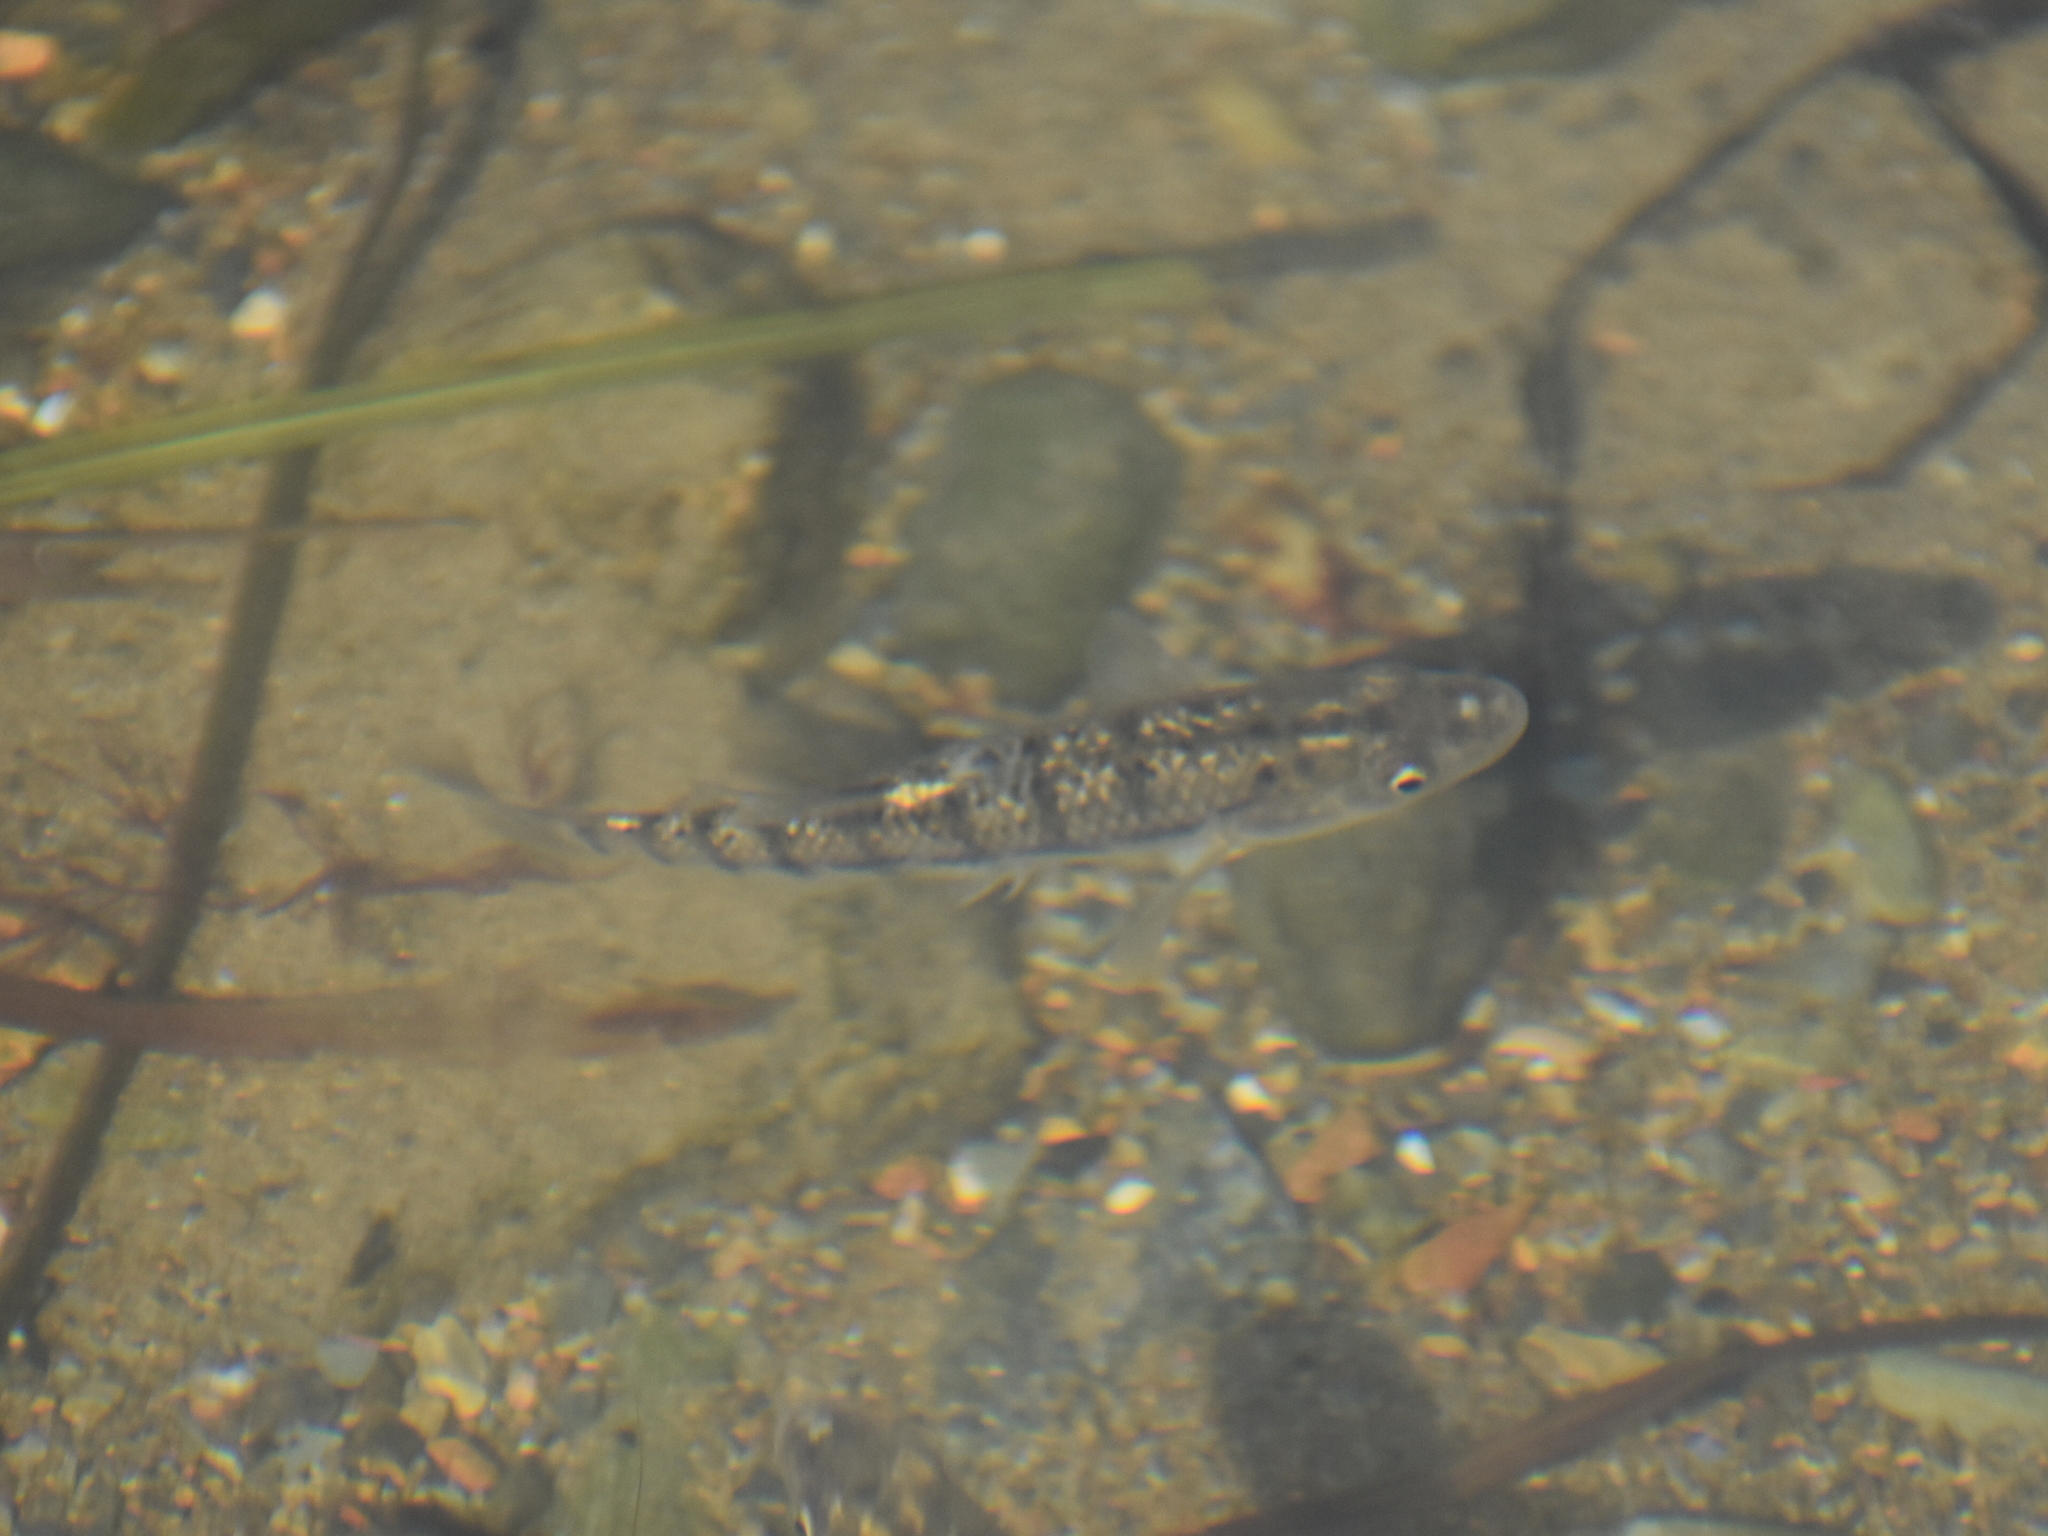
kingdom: Animalia
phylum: Chordata
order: Cyprinodontiformes
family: Fundulidae
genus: Fundulus
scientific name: Fundulus majalis
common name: Striped killifish
